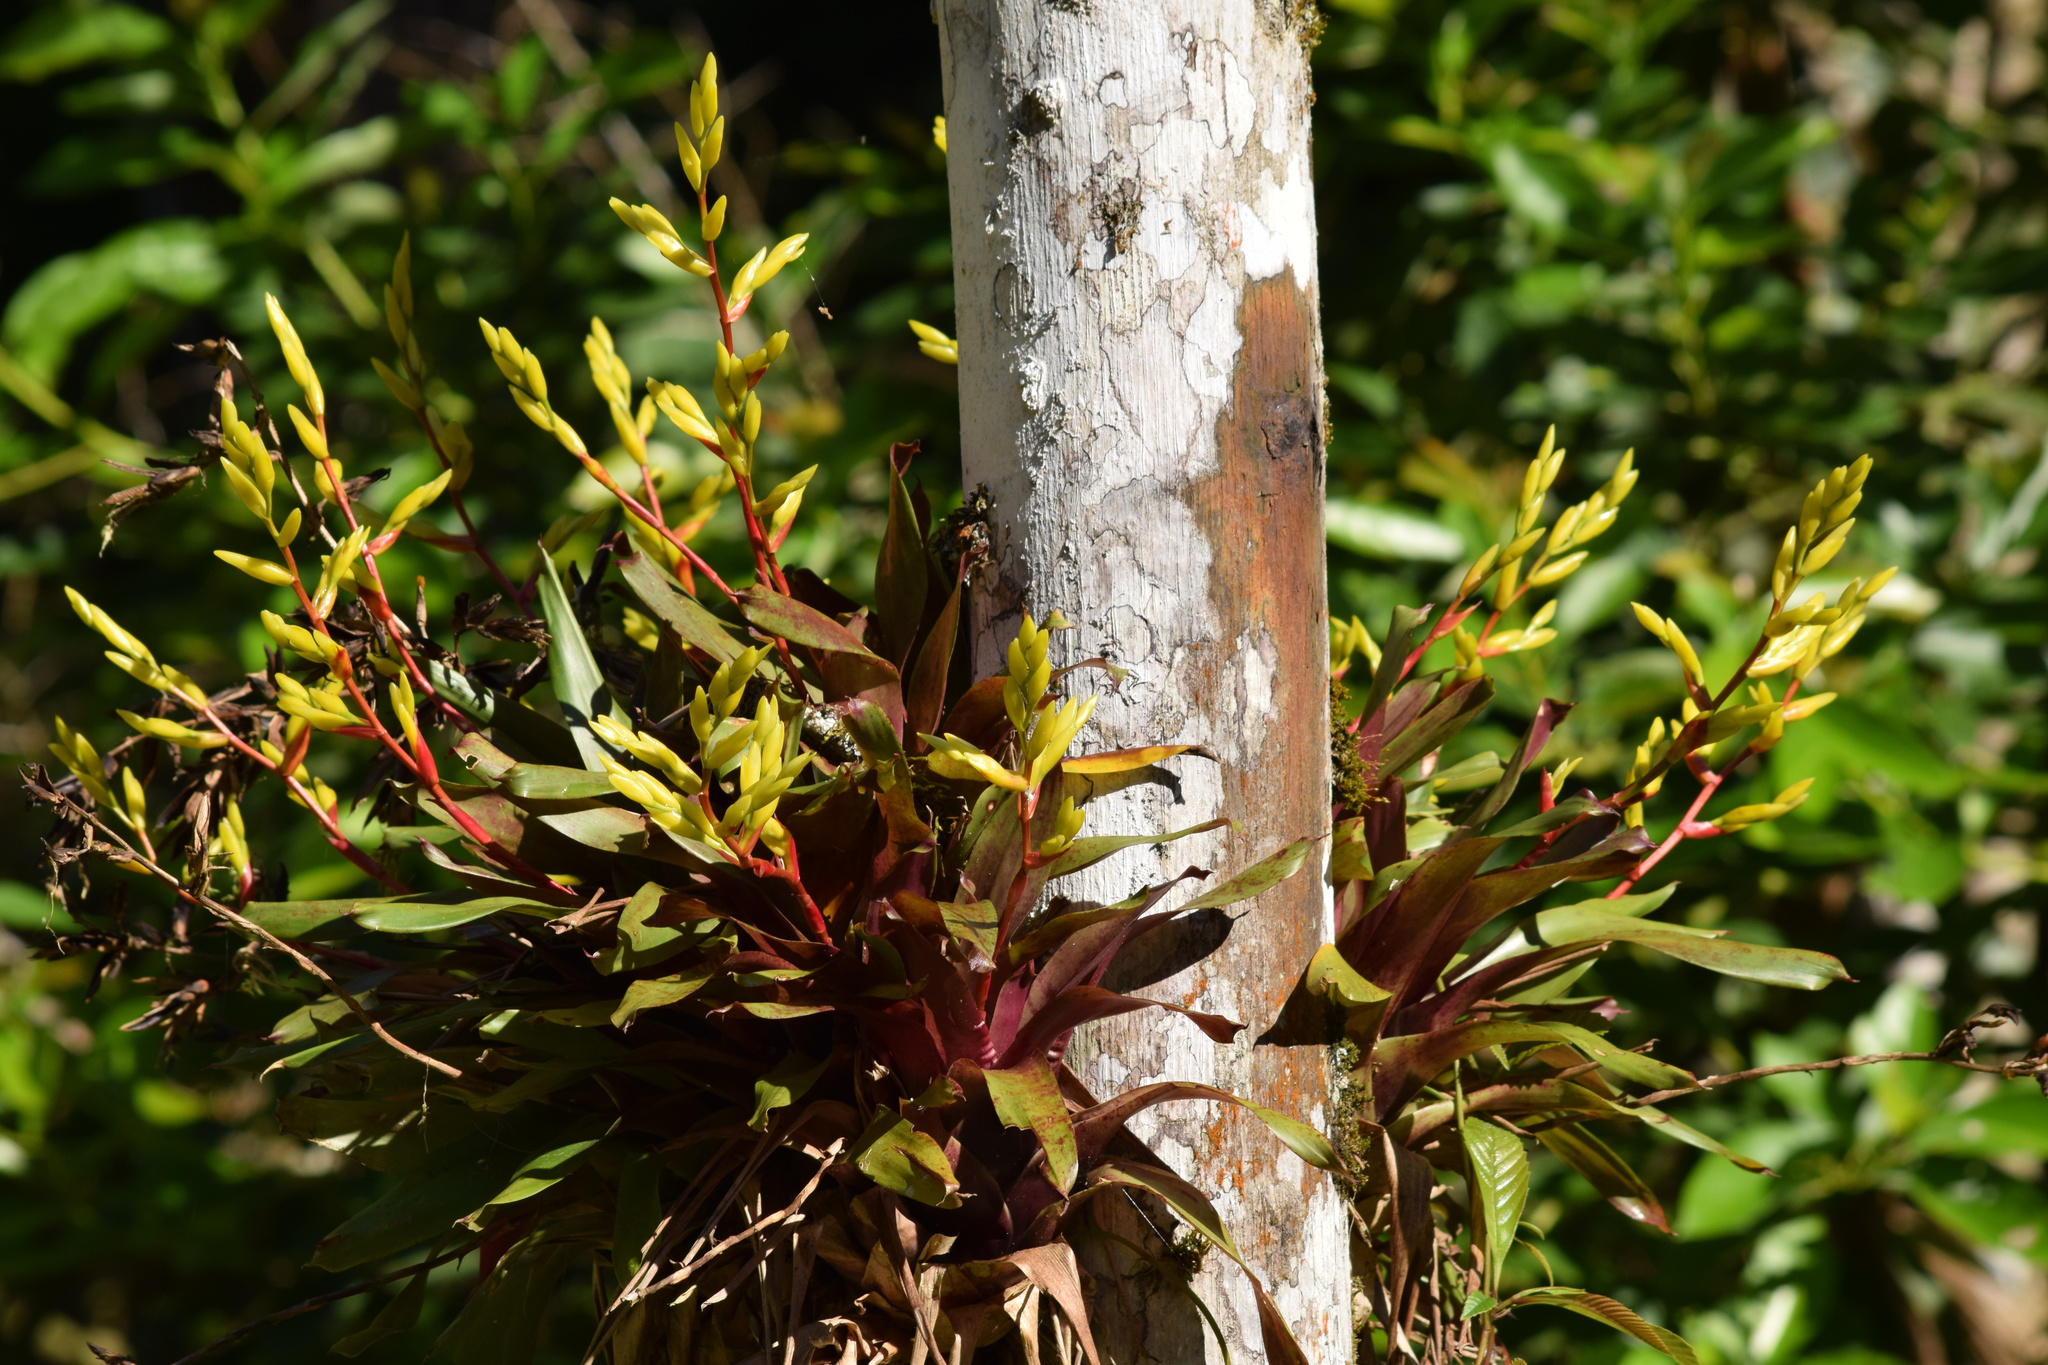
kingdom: Plantae
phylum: Tracheophyta
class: Liliopsida
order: Poales
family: Bromeliaceae
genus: Vriesea
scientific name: Vriesea rodigasiana
